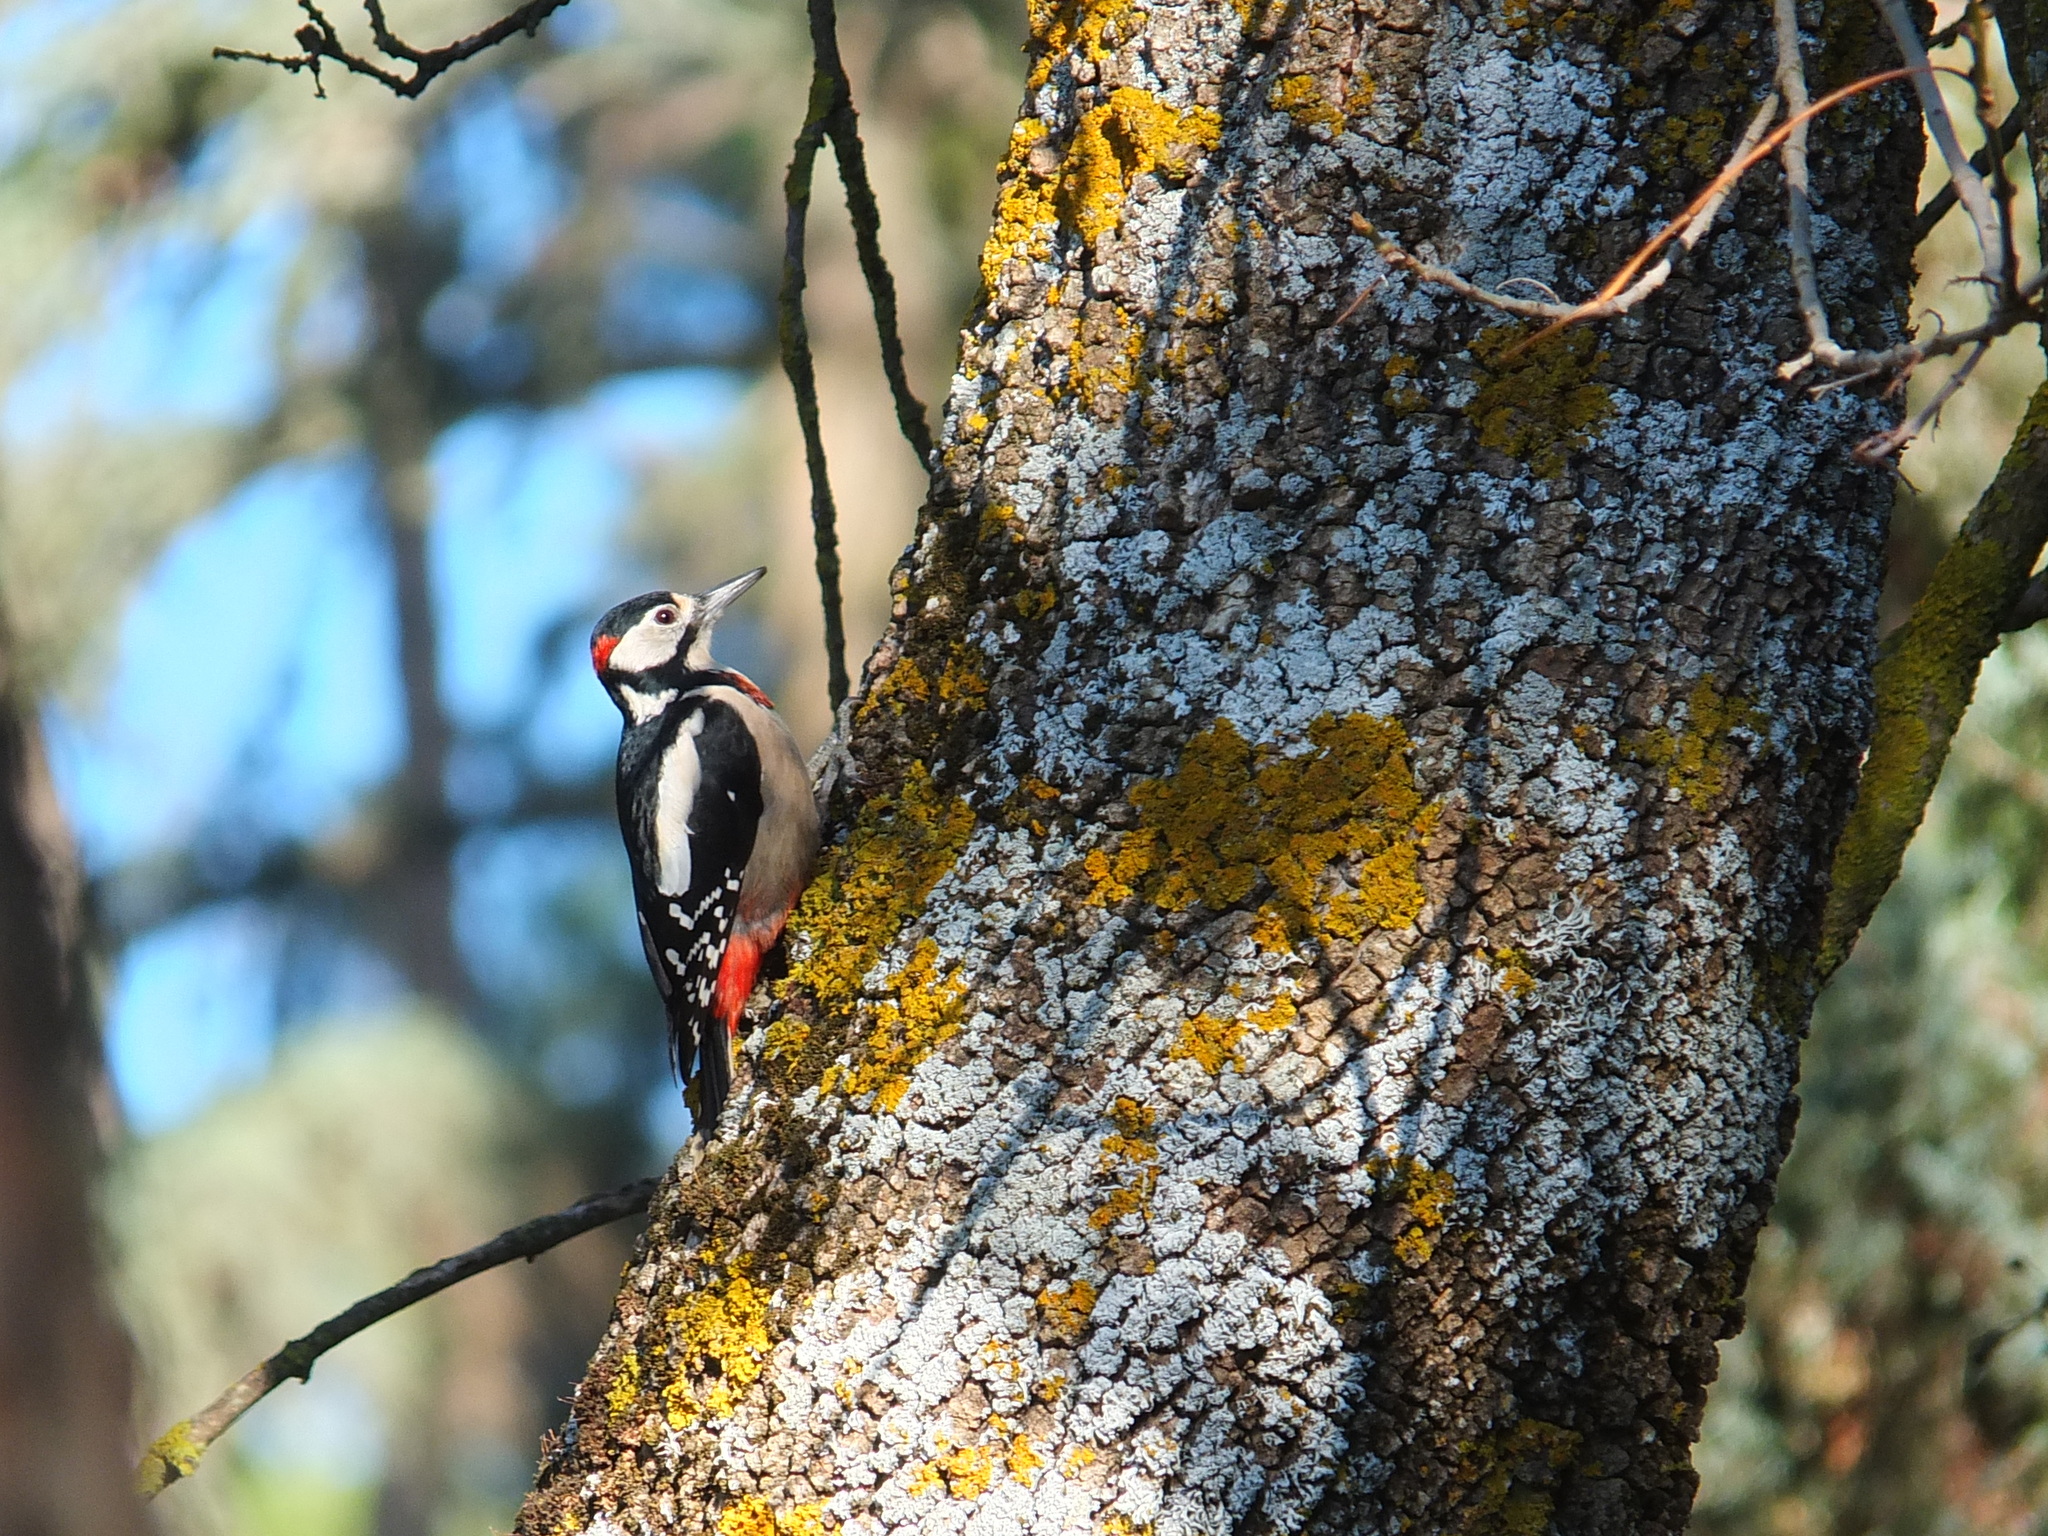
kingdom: Animalia
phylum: Chordata
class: Aves
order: Piciformes
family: Picidae
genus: Dendrocopos
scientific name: Dendrocopos major
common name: Great spotted woodpecker
